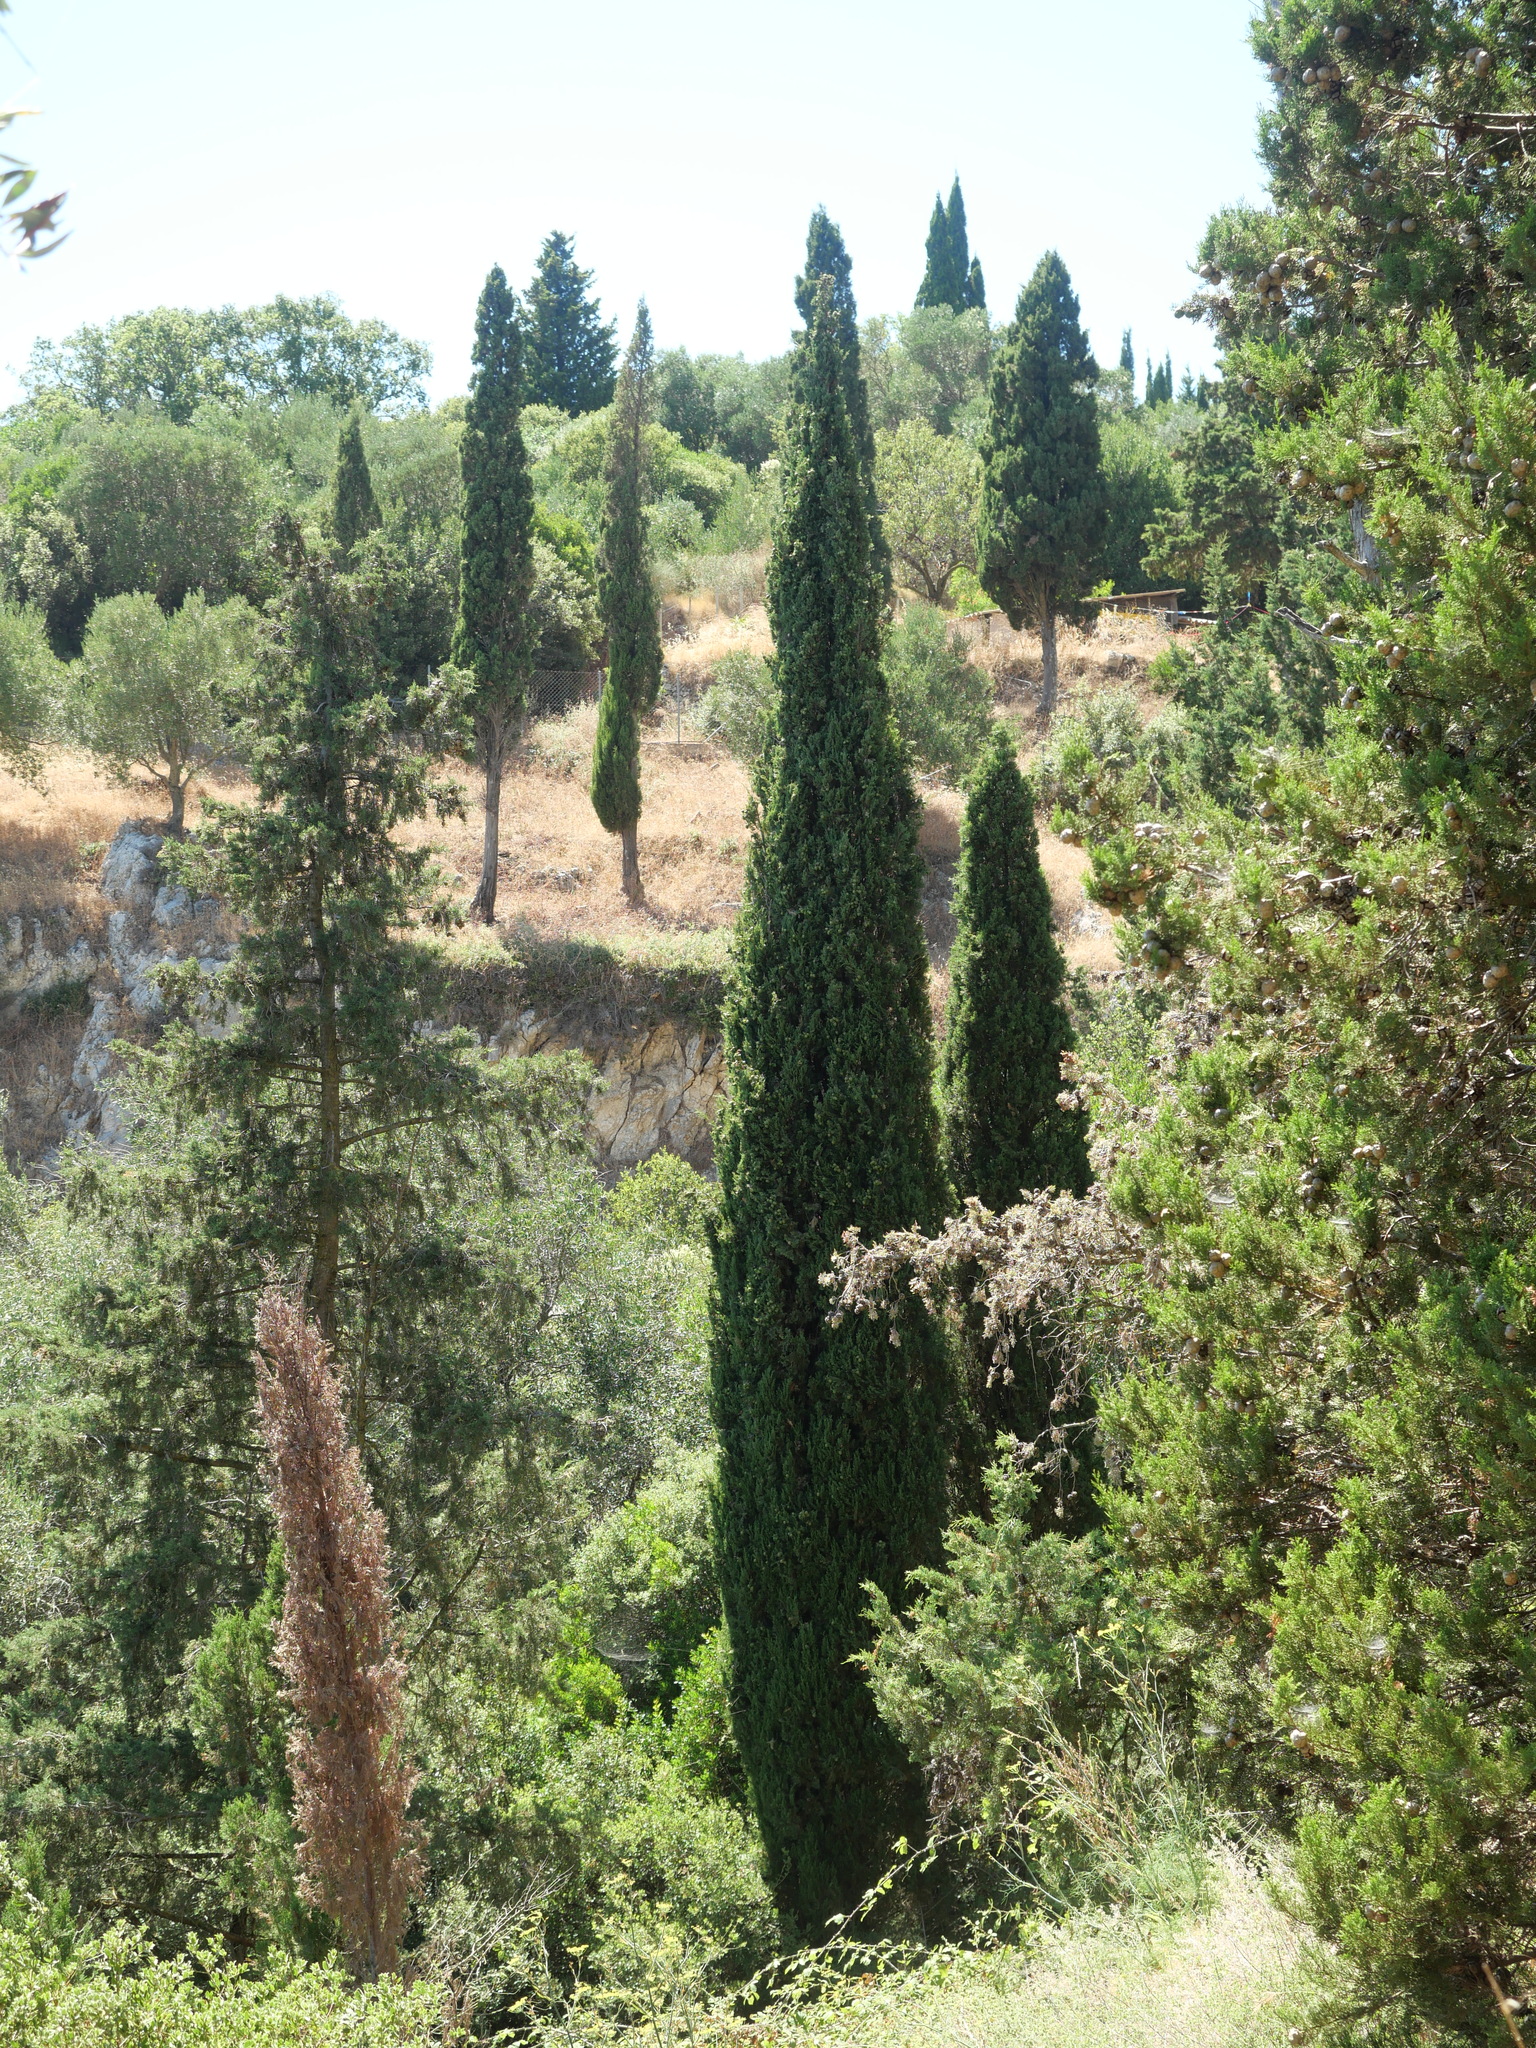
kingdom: Plantae
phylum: Tracheophyta
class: Pinopsida
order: Pinales
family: Cupressaceae
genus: Cupressus
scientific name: Cupressus sempervirens
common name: Italian cypress
